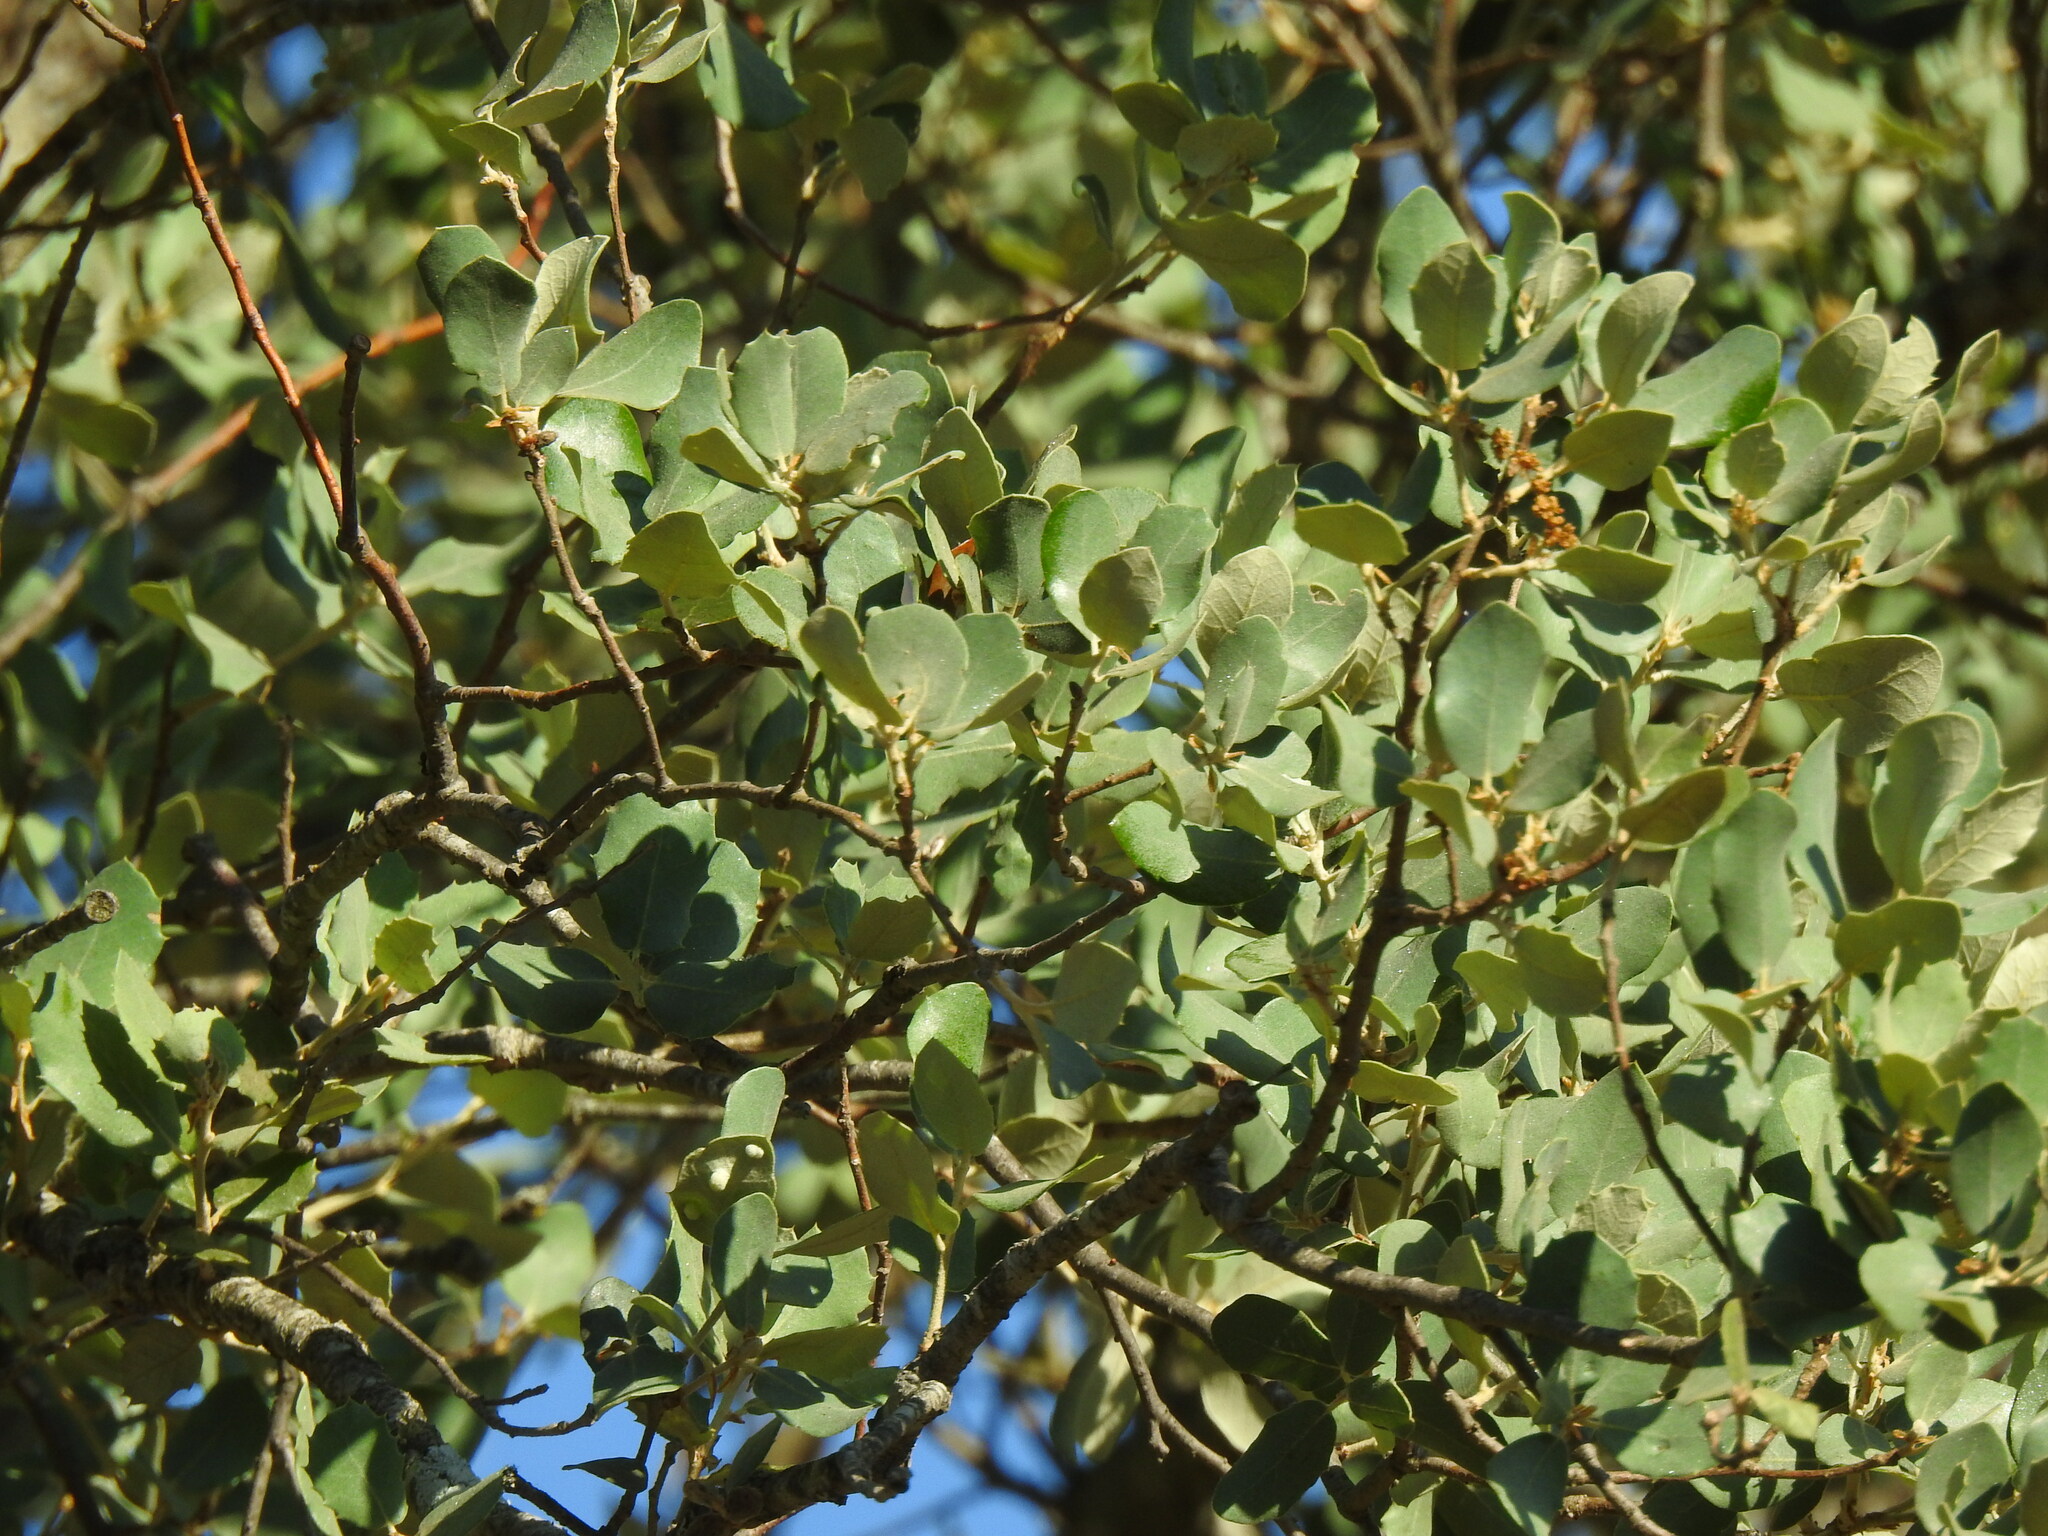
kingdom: Plantae
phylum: Tracheophyta
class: Magnoliopsida
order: Fagales
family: Fagaceae
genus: Quercus
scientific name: Quercus rotundifolia
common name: Holm oak
